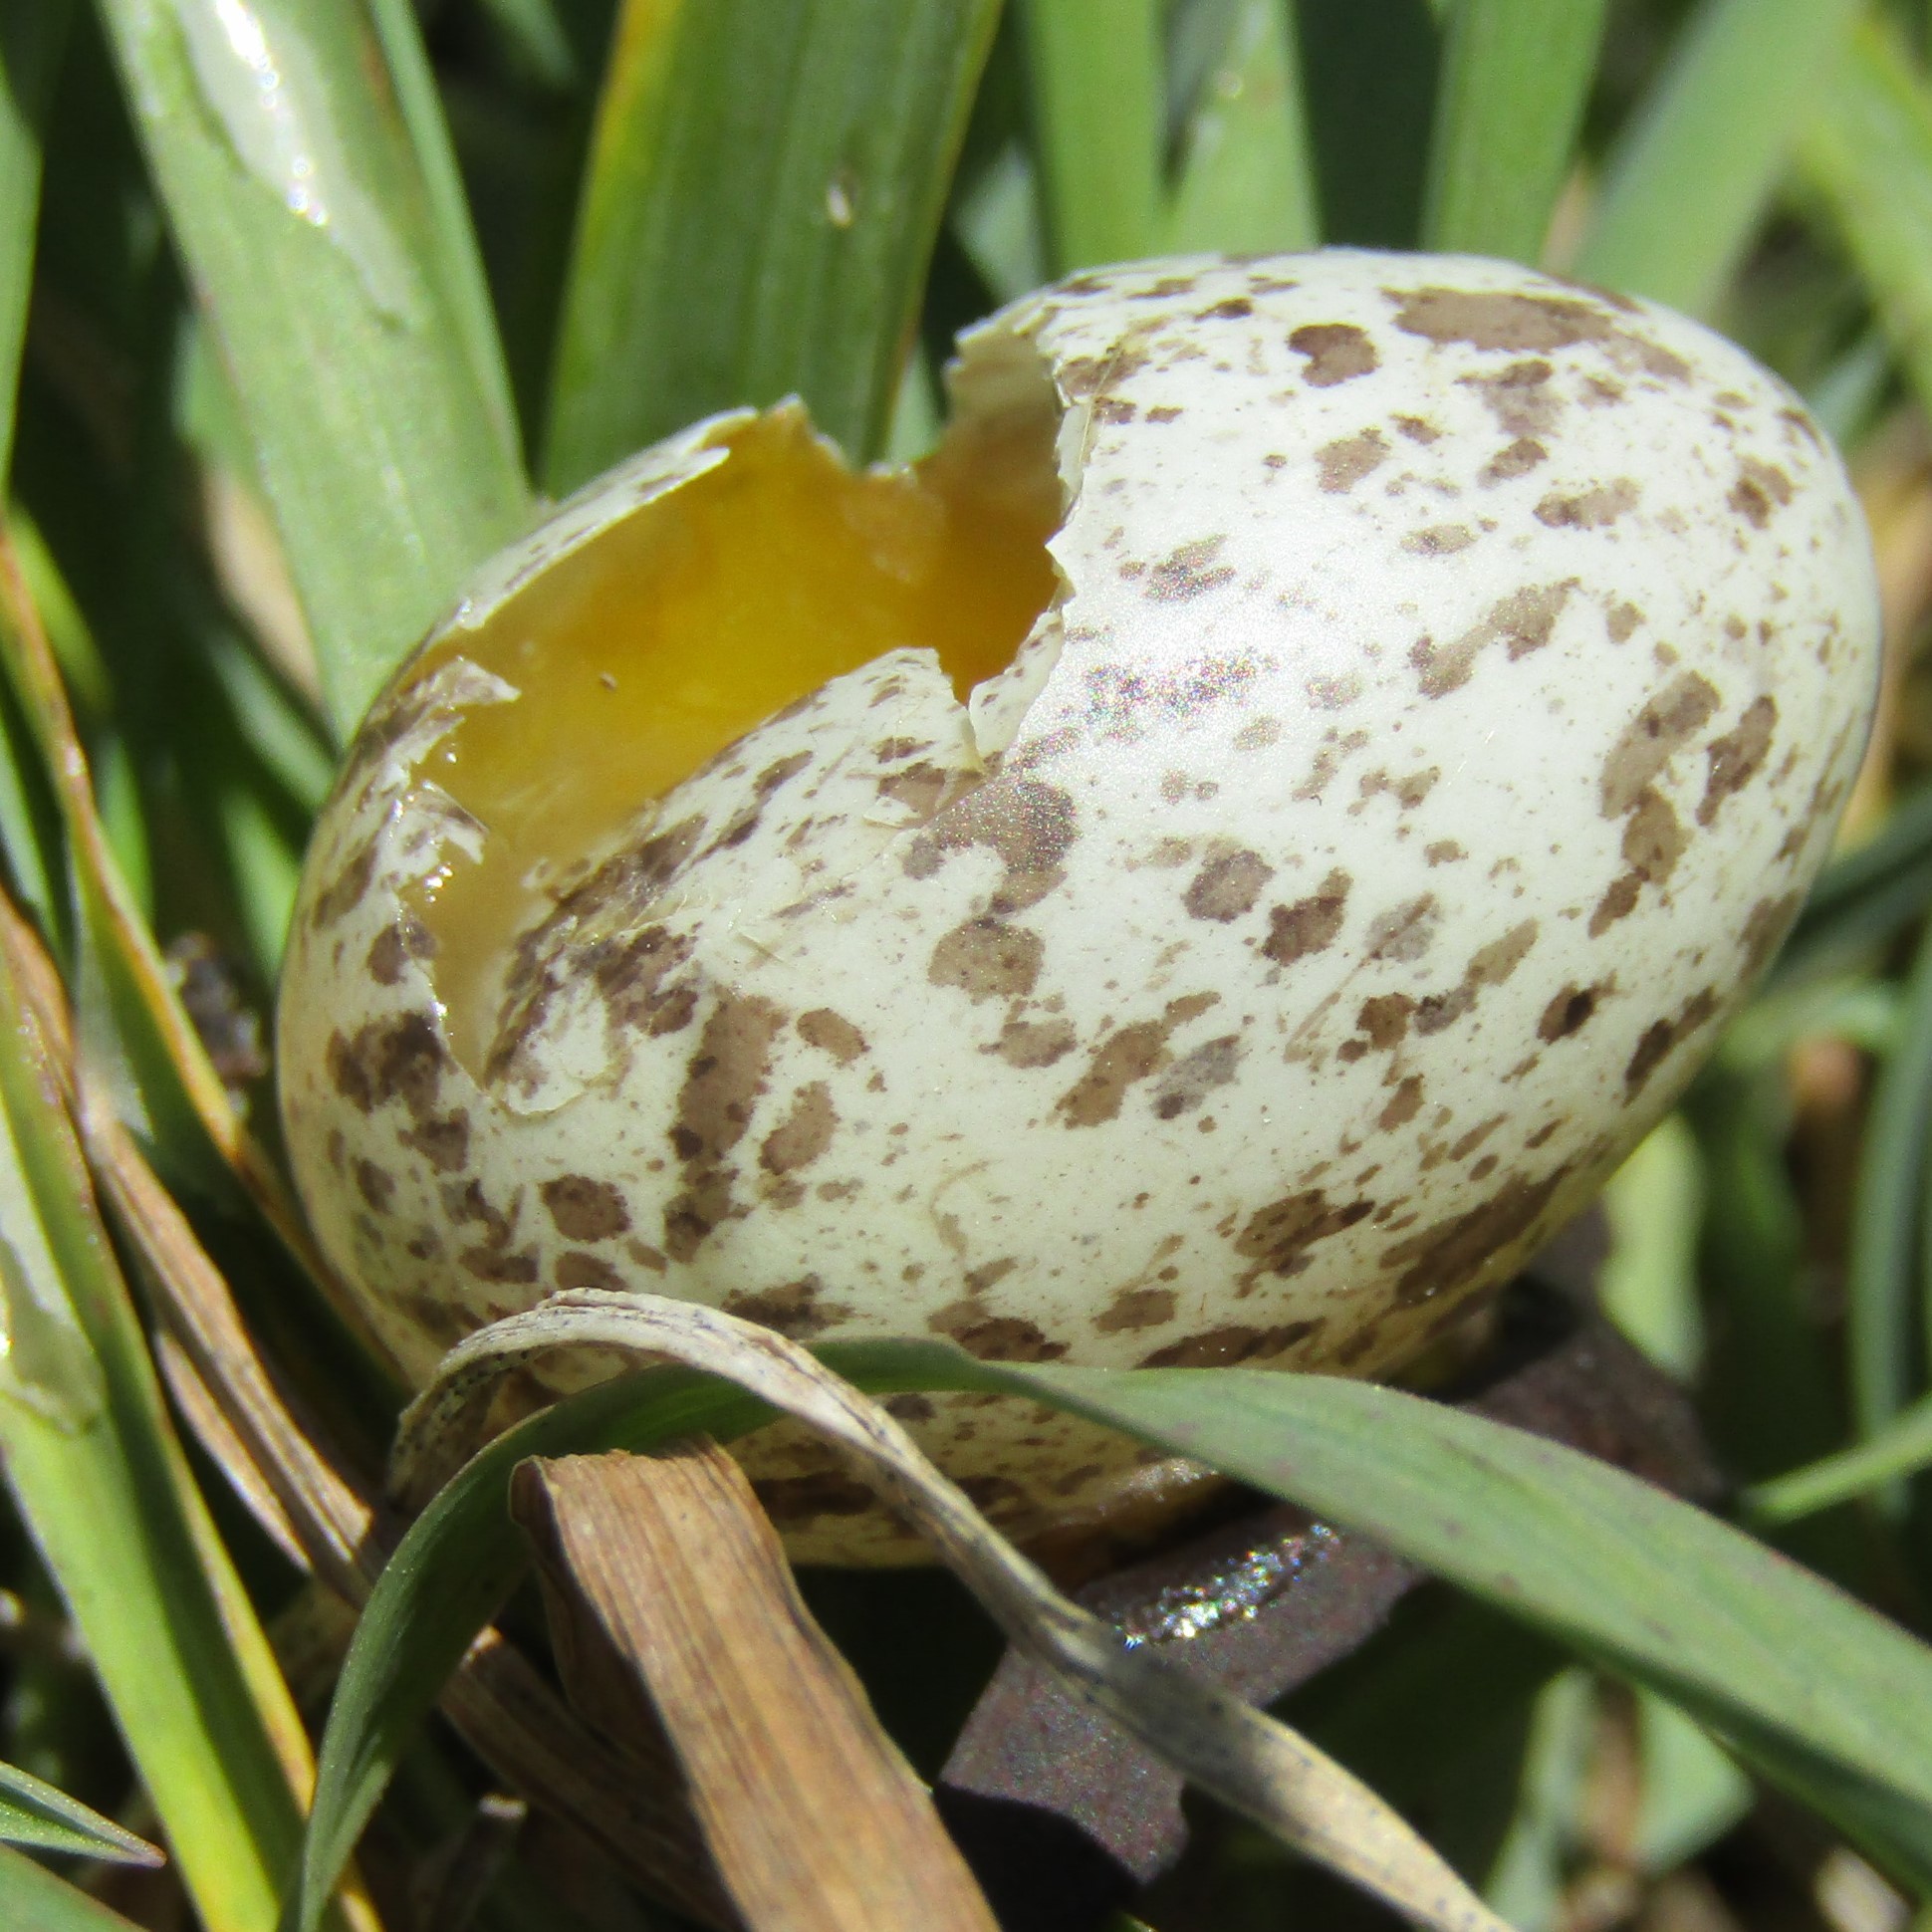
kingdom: Animalia
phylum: Chordata
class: Aves
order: Passeriformes
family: Passeridae
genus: Passer
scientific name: Passer domesticus
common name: House sparrow
